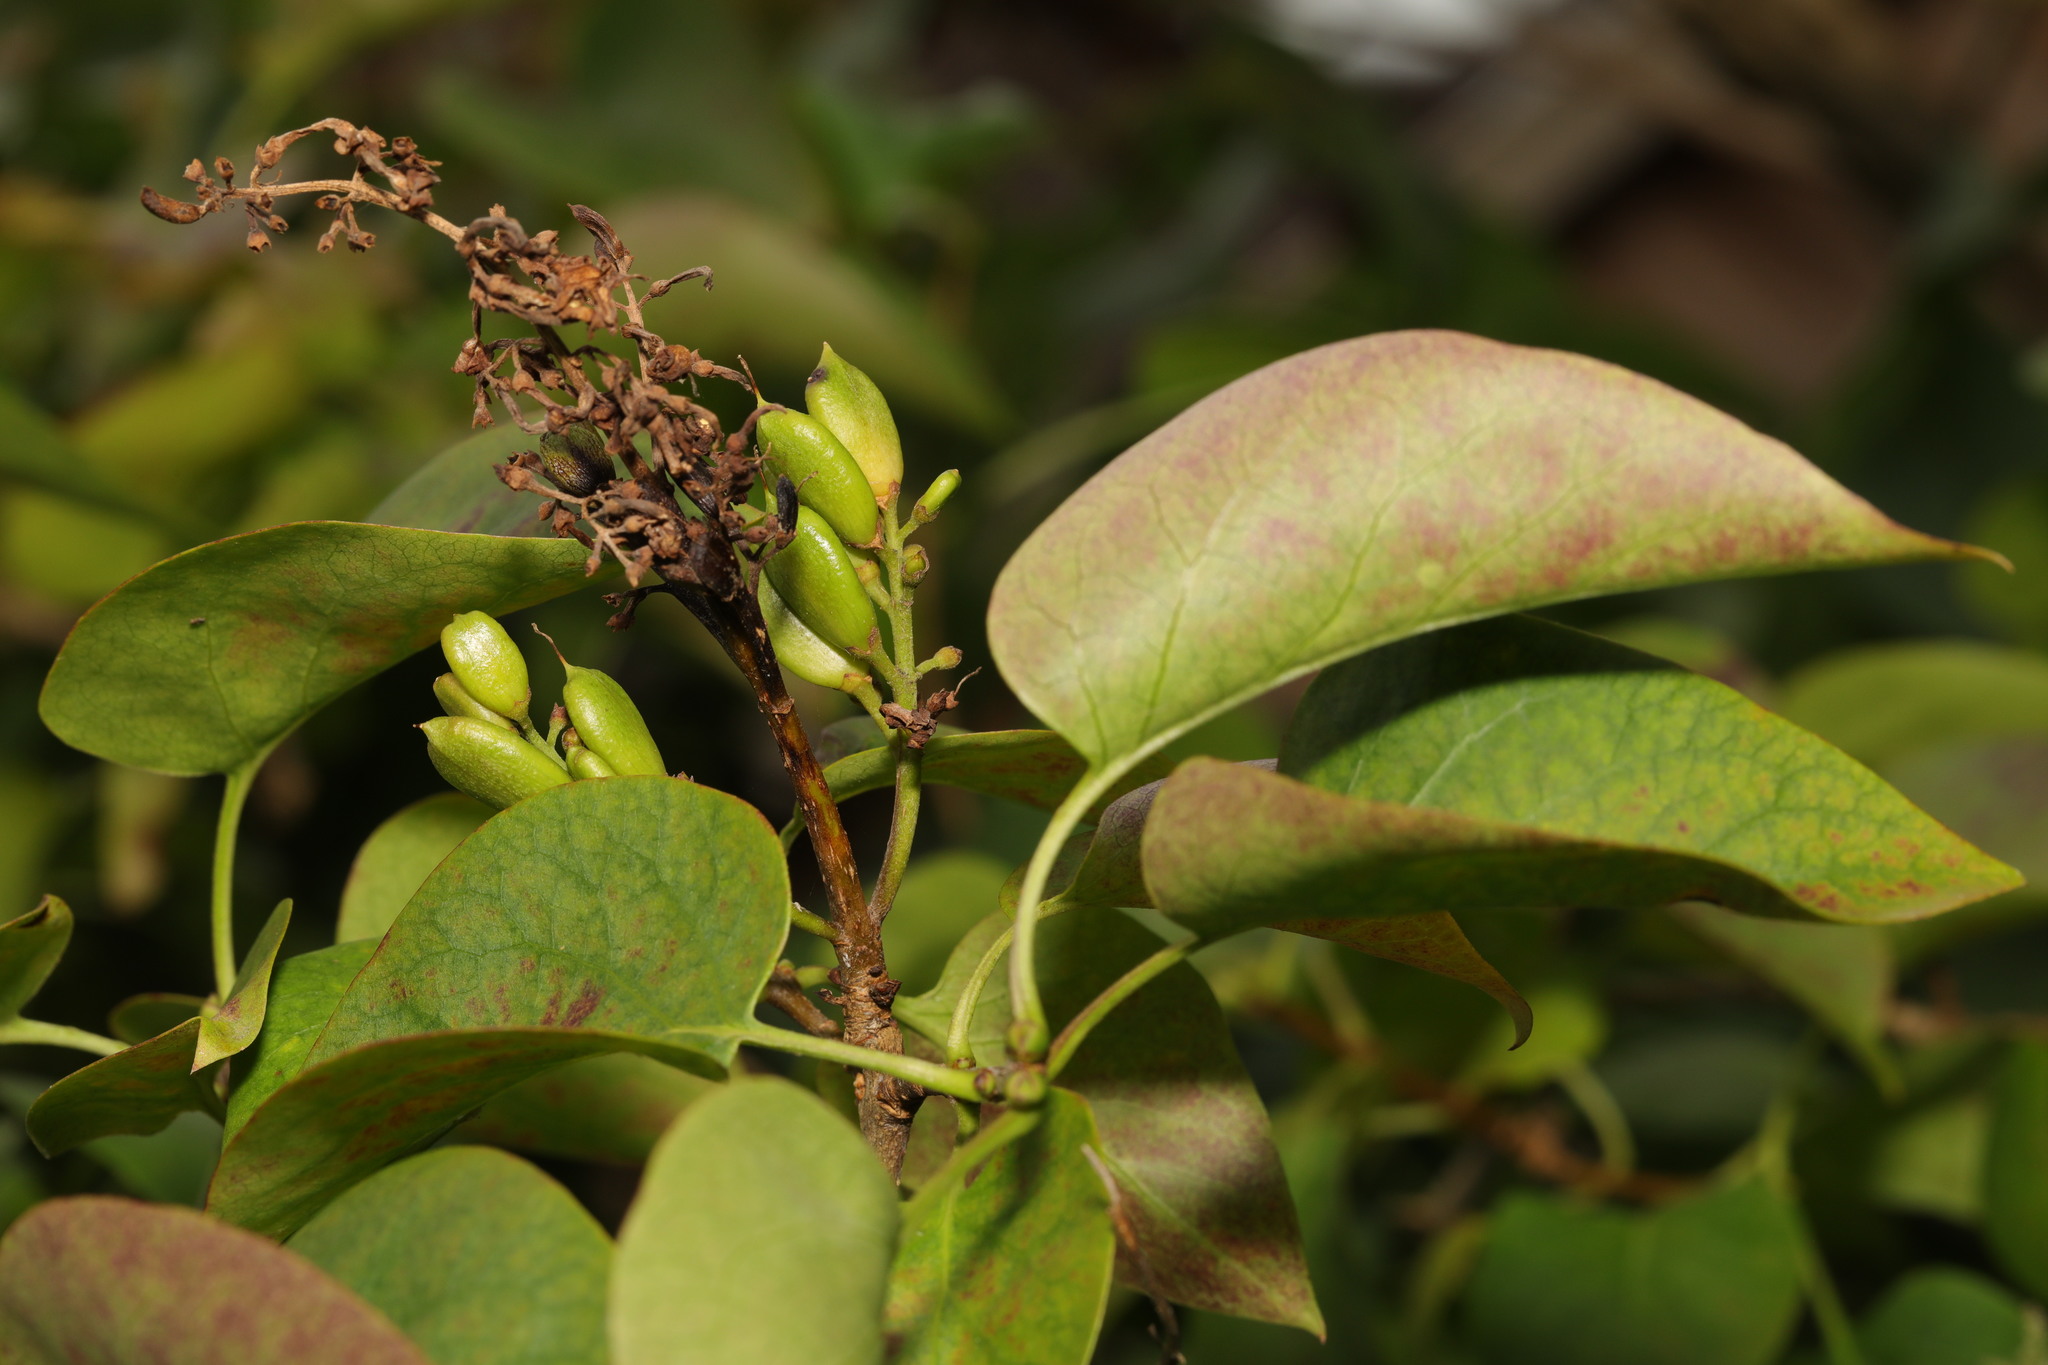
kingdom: Plantae
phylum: Tracheophyta
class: Magnoliopsida
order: Lamiales
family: Oleaceae
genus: Syringa
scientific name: Syringa vulgaris
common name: Common lilac
